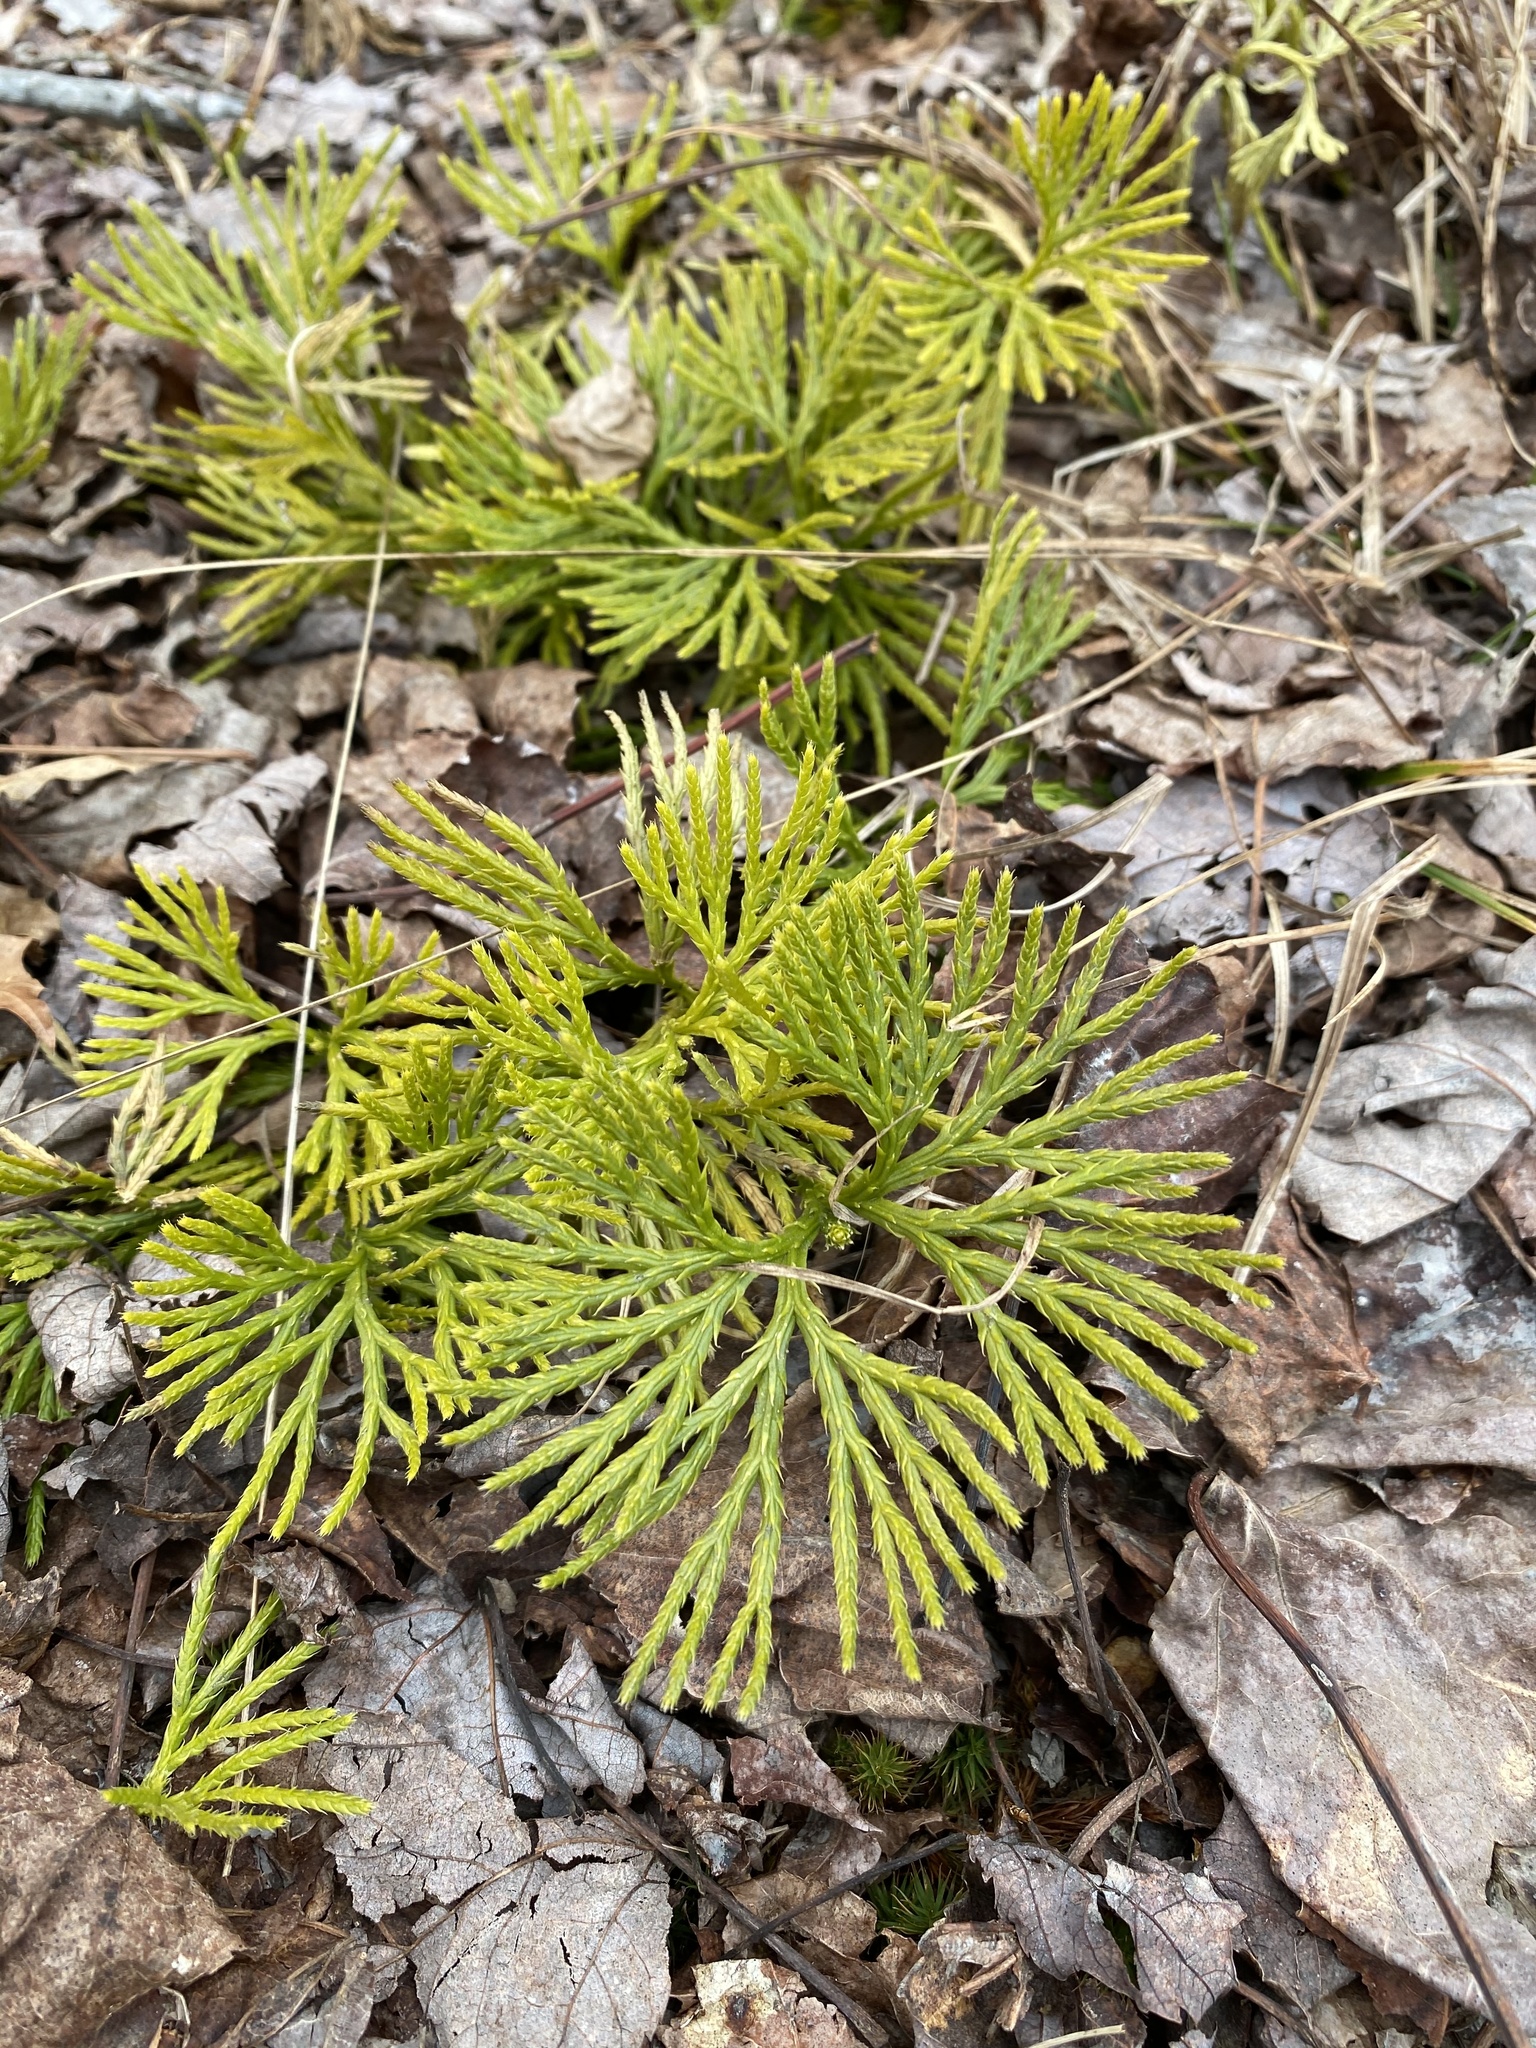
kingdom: Plantae
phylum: Tracheophyta
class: Lycopodiopsida
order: Lycopodiales
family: Lycopodiaceae
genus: Diphasiastrum
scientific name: Diphasiastrum digitatum
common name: Southern running-pine
